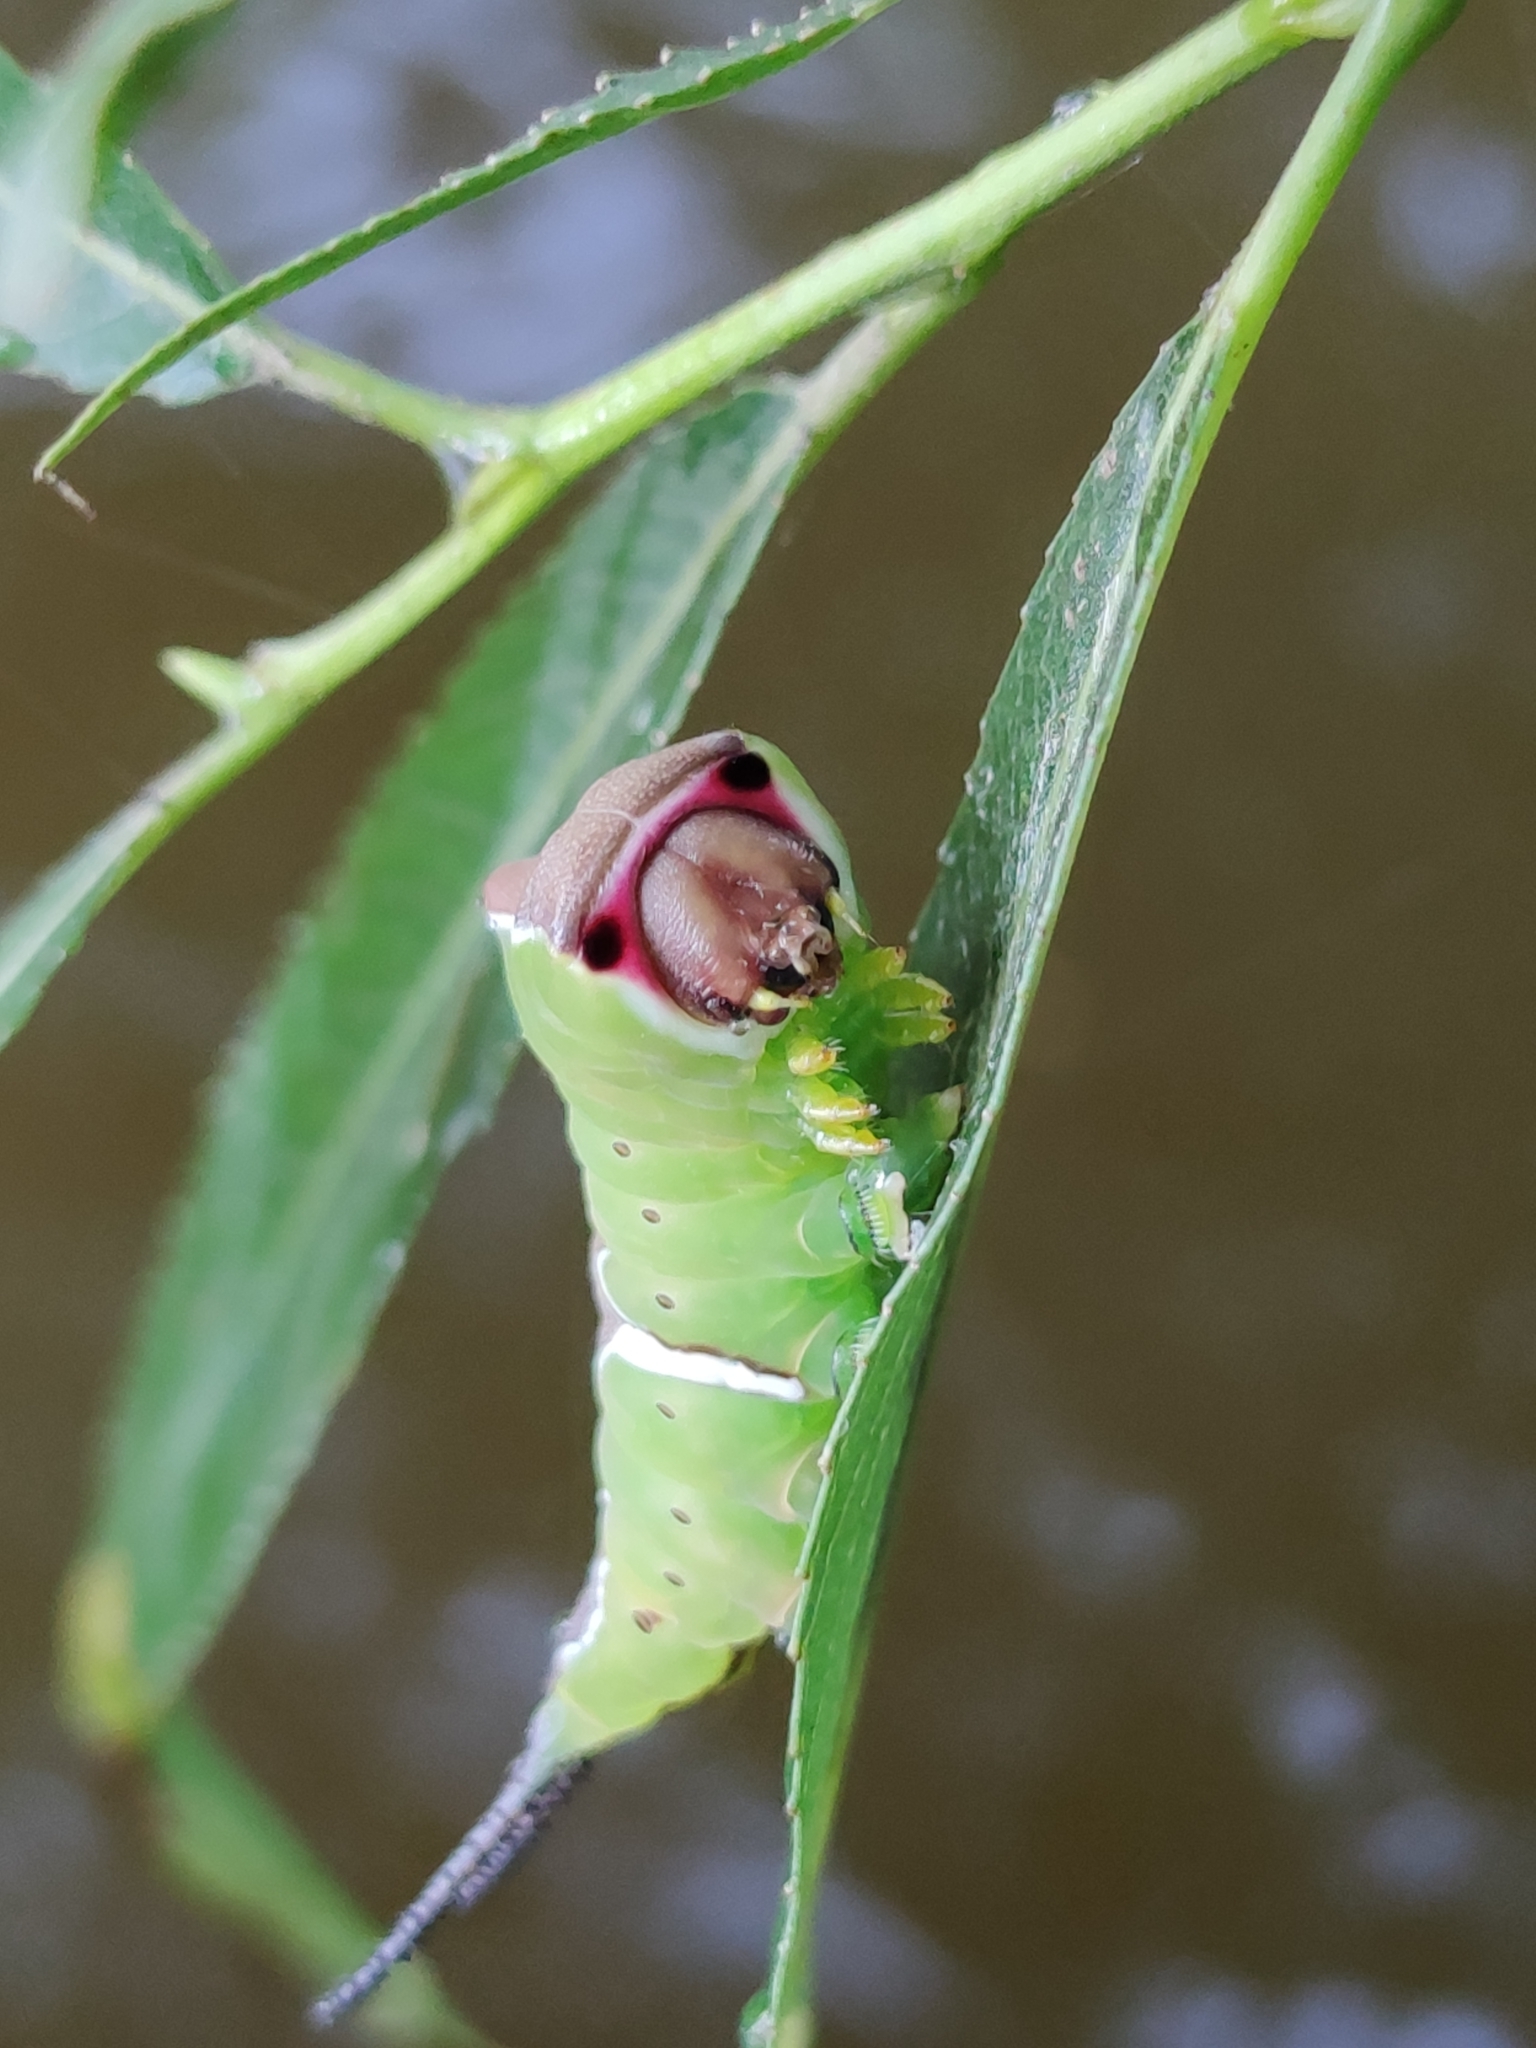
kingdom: Animalia
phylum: Arthropoda
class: Insecta
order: Lepidoptera
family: Notodontidae
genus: Cerura
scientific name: Cerura erminea
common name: Lesser puss moth
